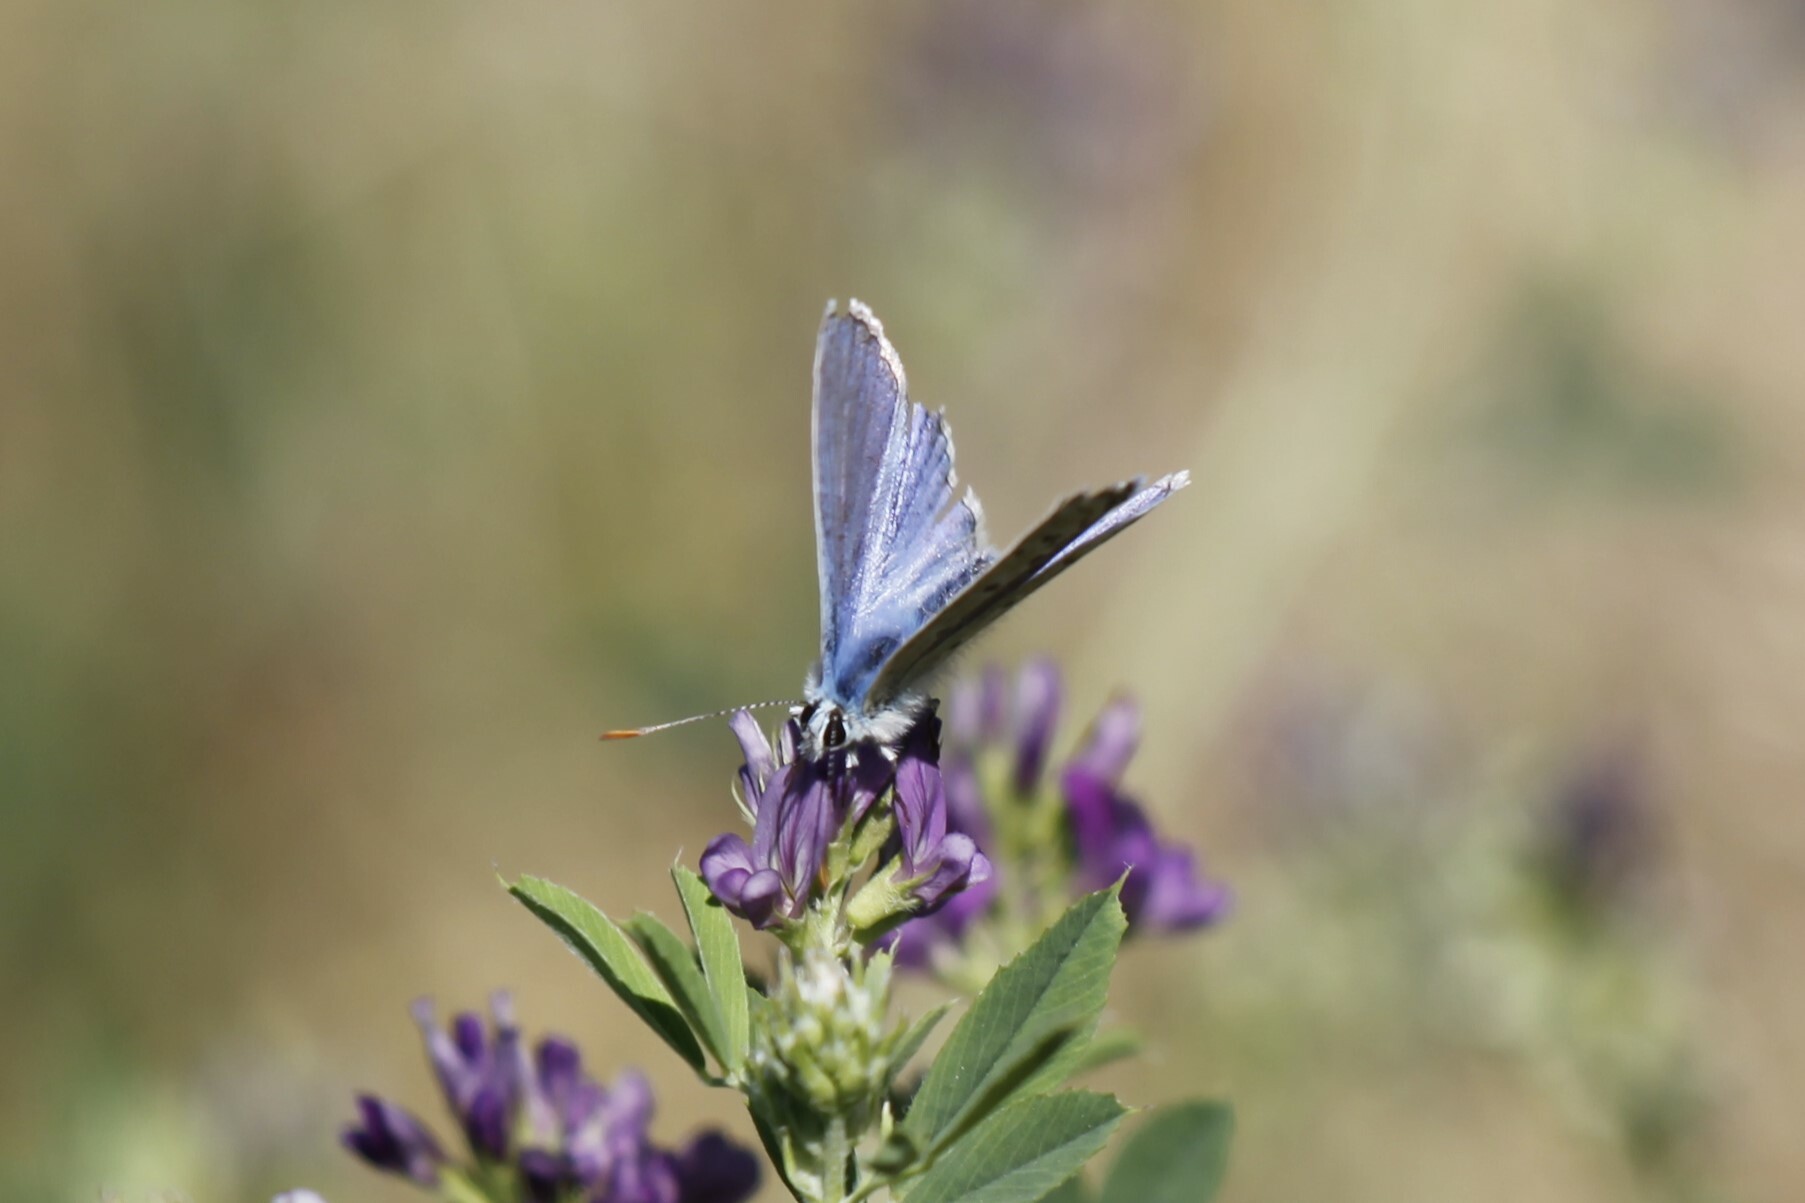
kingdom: Animalia
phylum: Arthropoda
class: Insecta
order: Lepidoptera
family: Lycaenidae
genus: Polyommatus
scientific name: Polyommatus icarus
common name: Common blue
